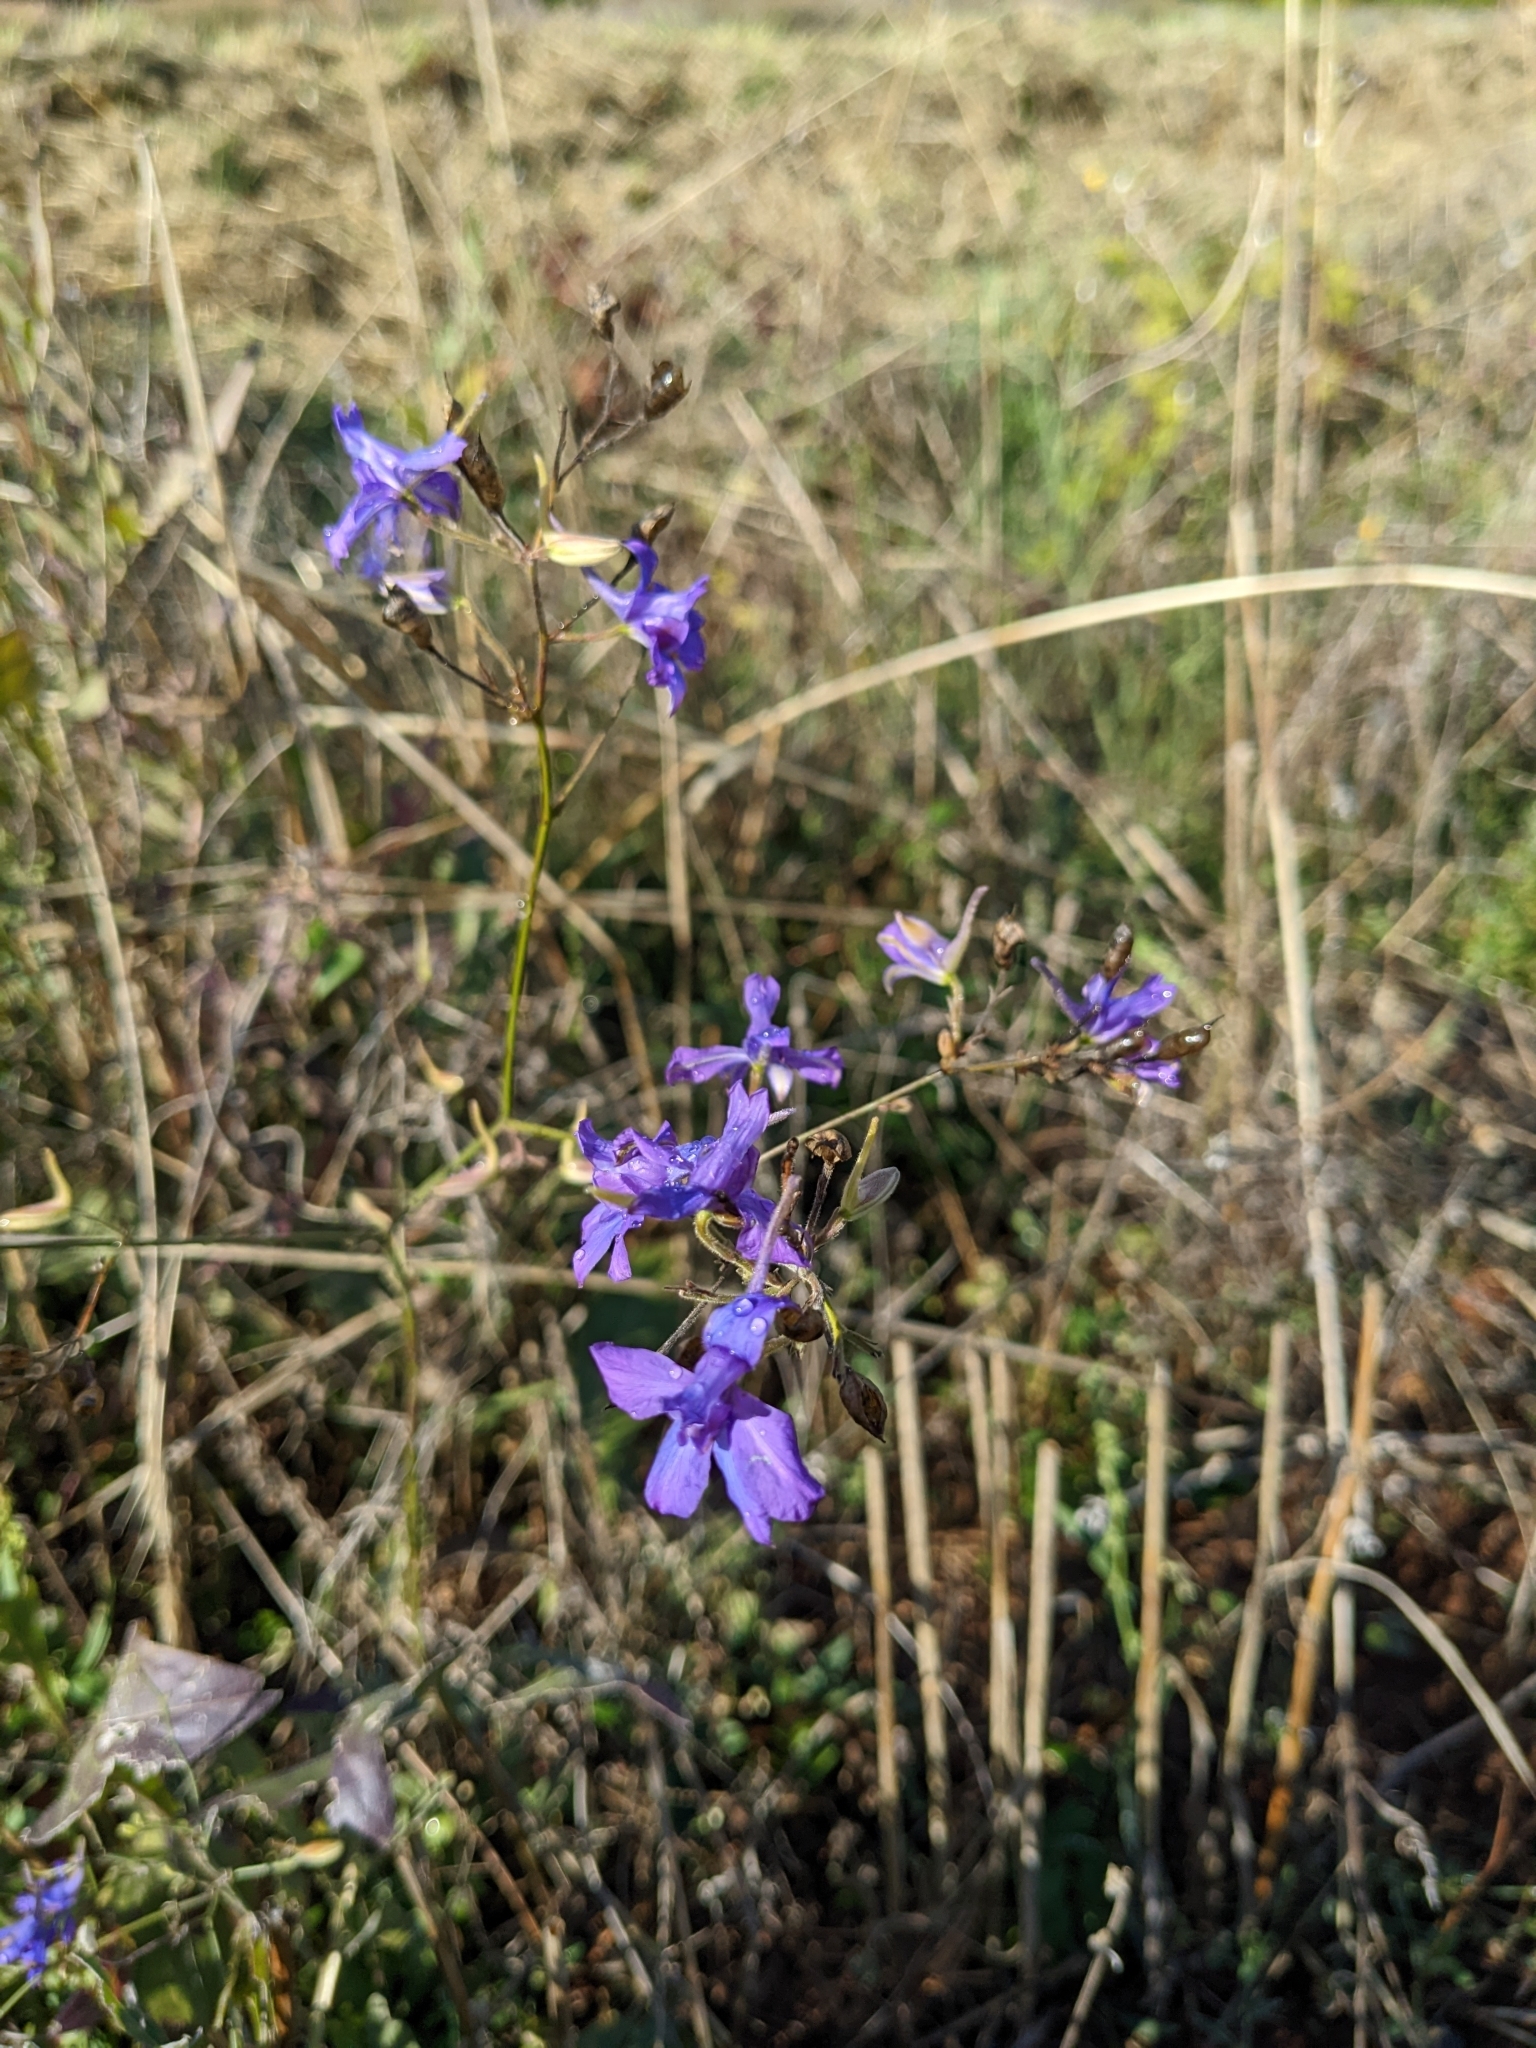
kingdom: Plantae
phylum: Tracheophyta
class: Magnoliopsida
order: Ranunculales
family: Ranunculaceae
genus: Delphinium
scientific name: Delphinium consolida
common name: Branching larkspur
